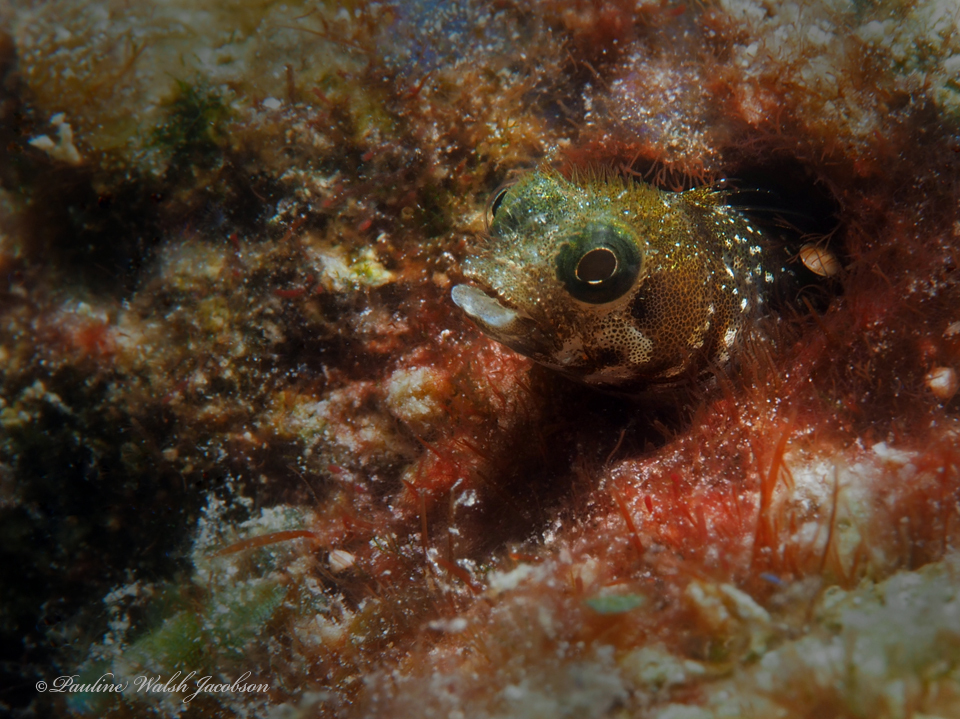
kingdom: Animalia
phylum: Chordata
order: Perciformes
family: Chaenopsidae
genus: Acanthemblemaria
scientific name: Acanthemblemaria spinosa
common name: Spinyhead blenny
